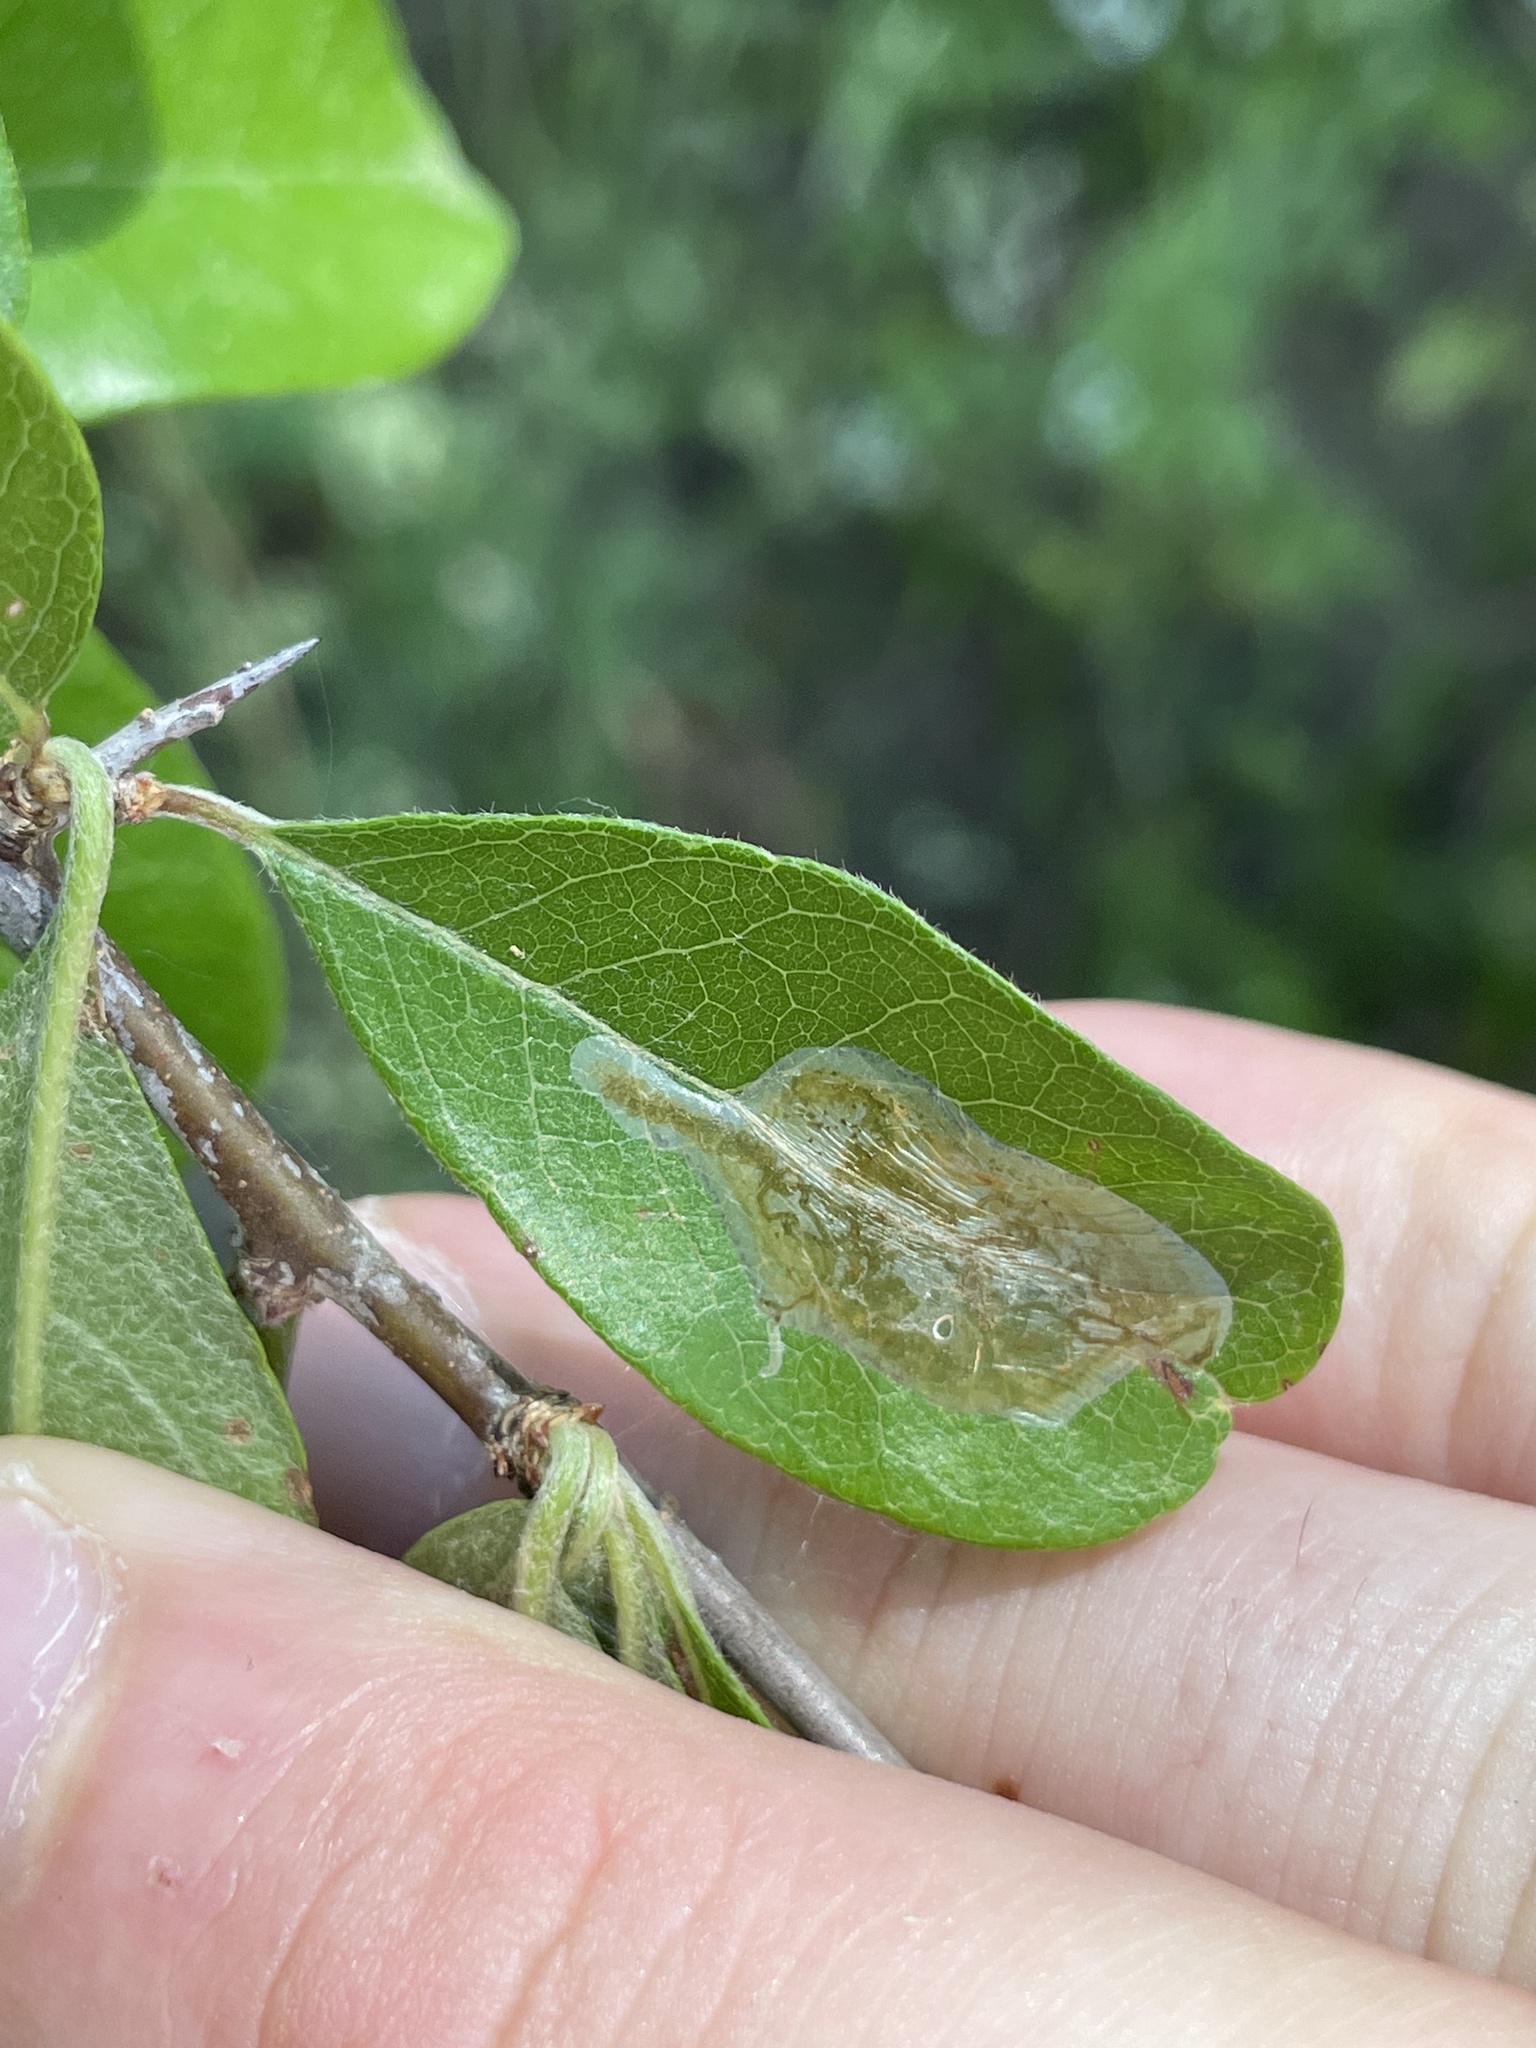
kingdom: Animalia
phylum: Arthropoda
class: Insecta
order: Lepidoptera
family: Gracillariidae
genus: Parectopa
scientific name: Parectopa bumeliella
